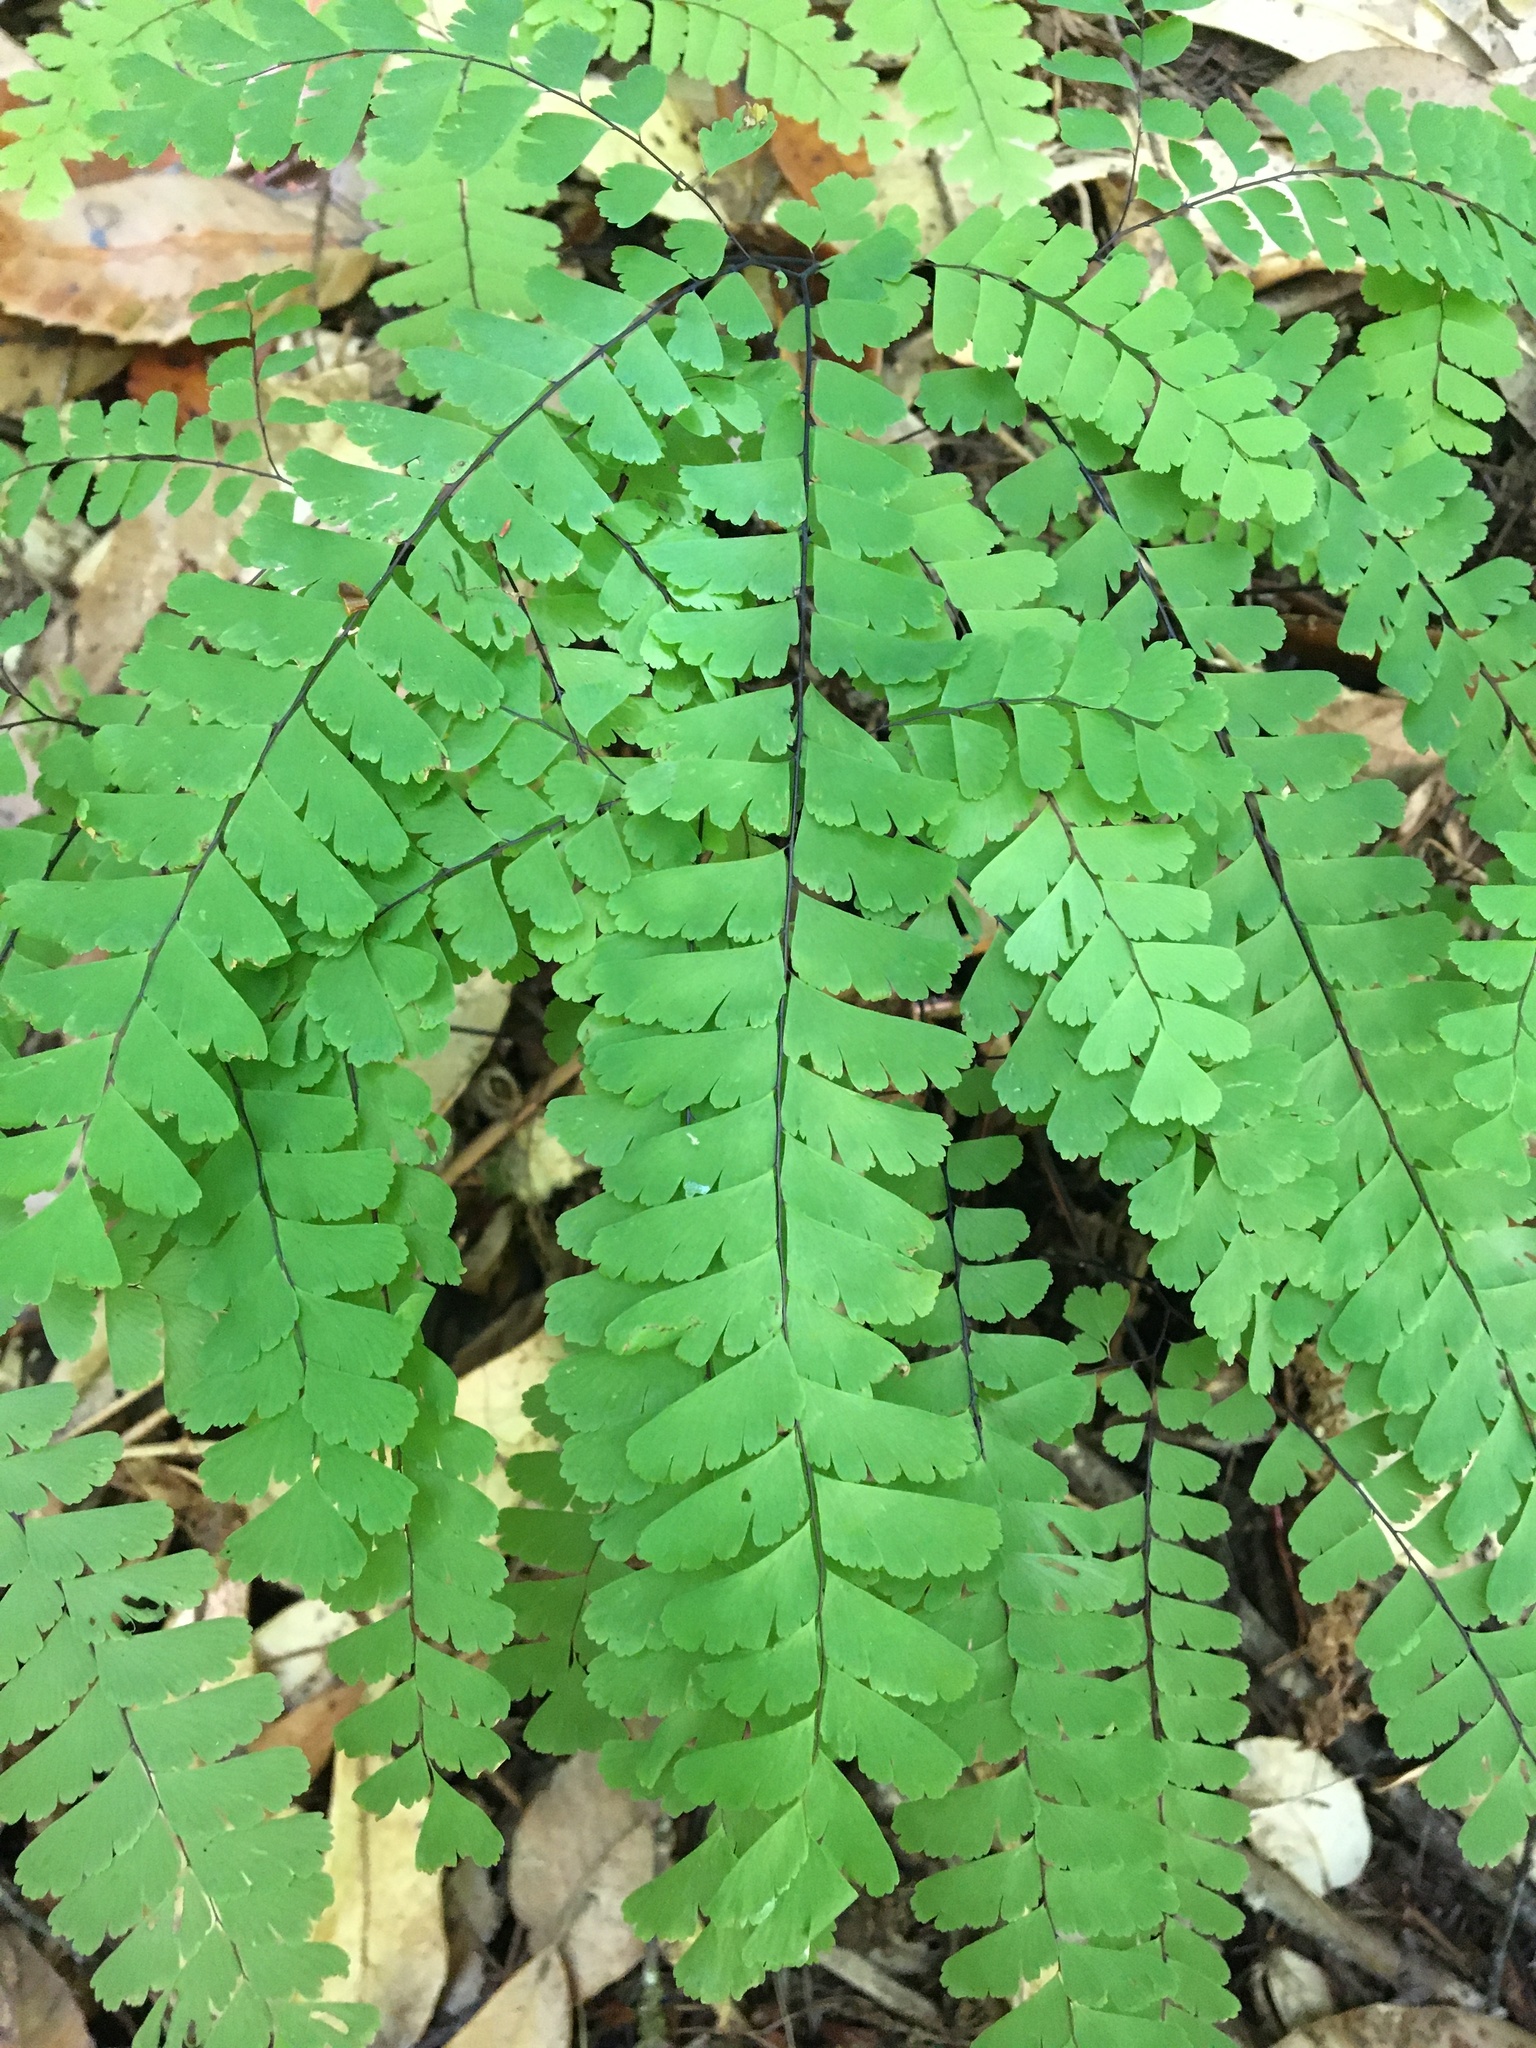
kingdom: Plantae
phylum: Tracheophyta
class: Polypodiopsida
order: Polypodiales
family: Pteridaceae
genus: Adiantum
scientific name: Adiantum aleuticum
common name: Aleutian maidenhair fern
